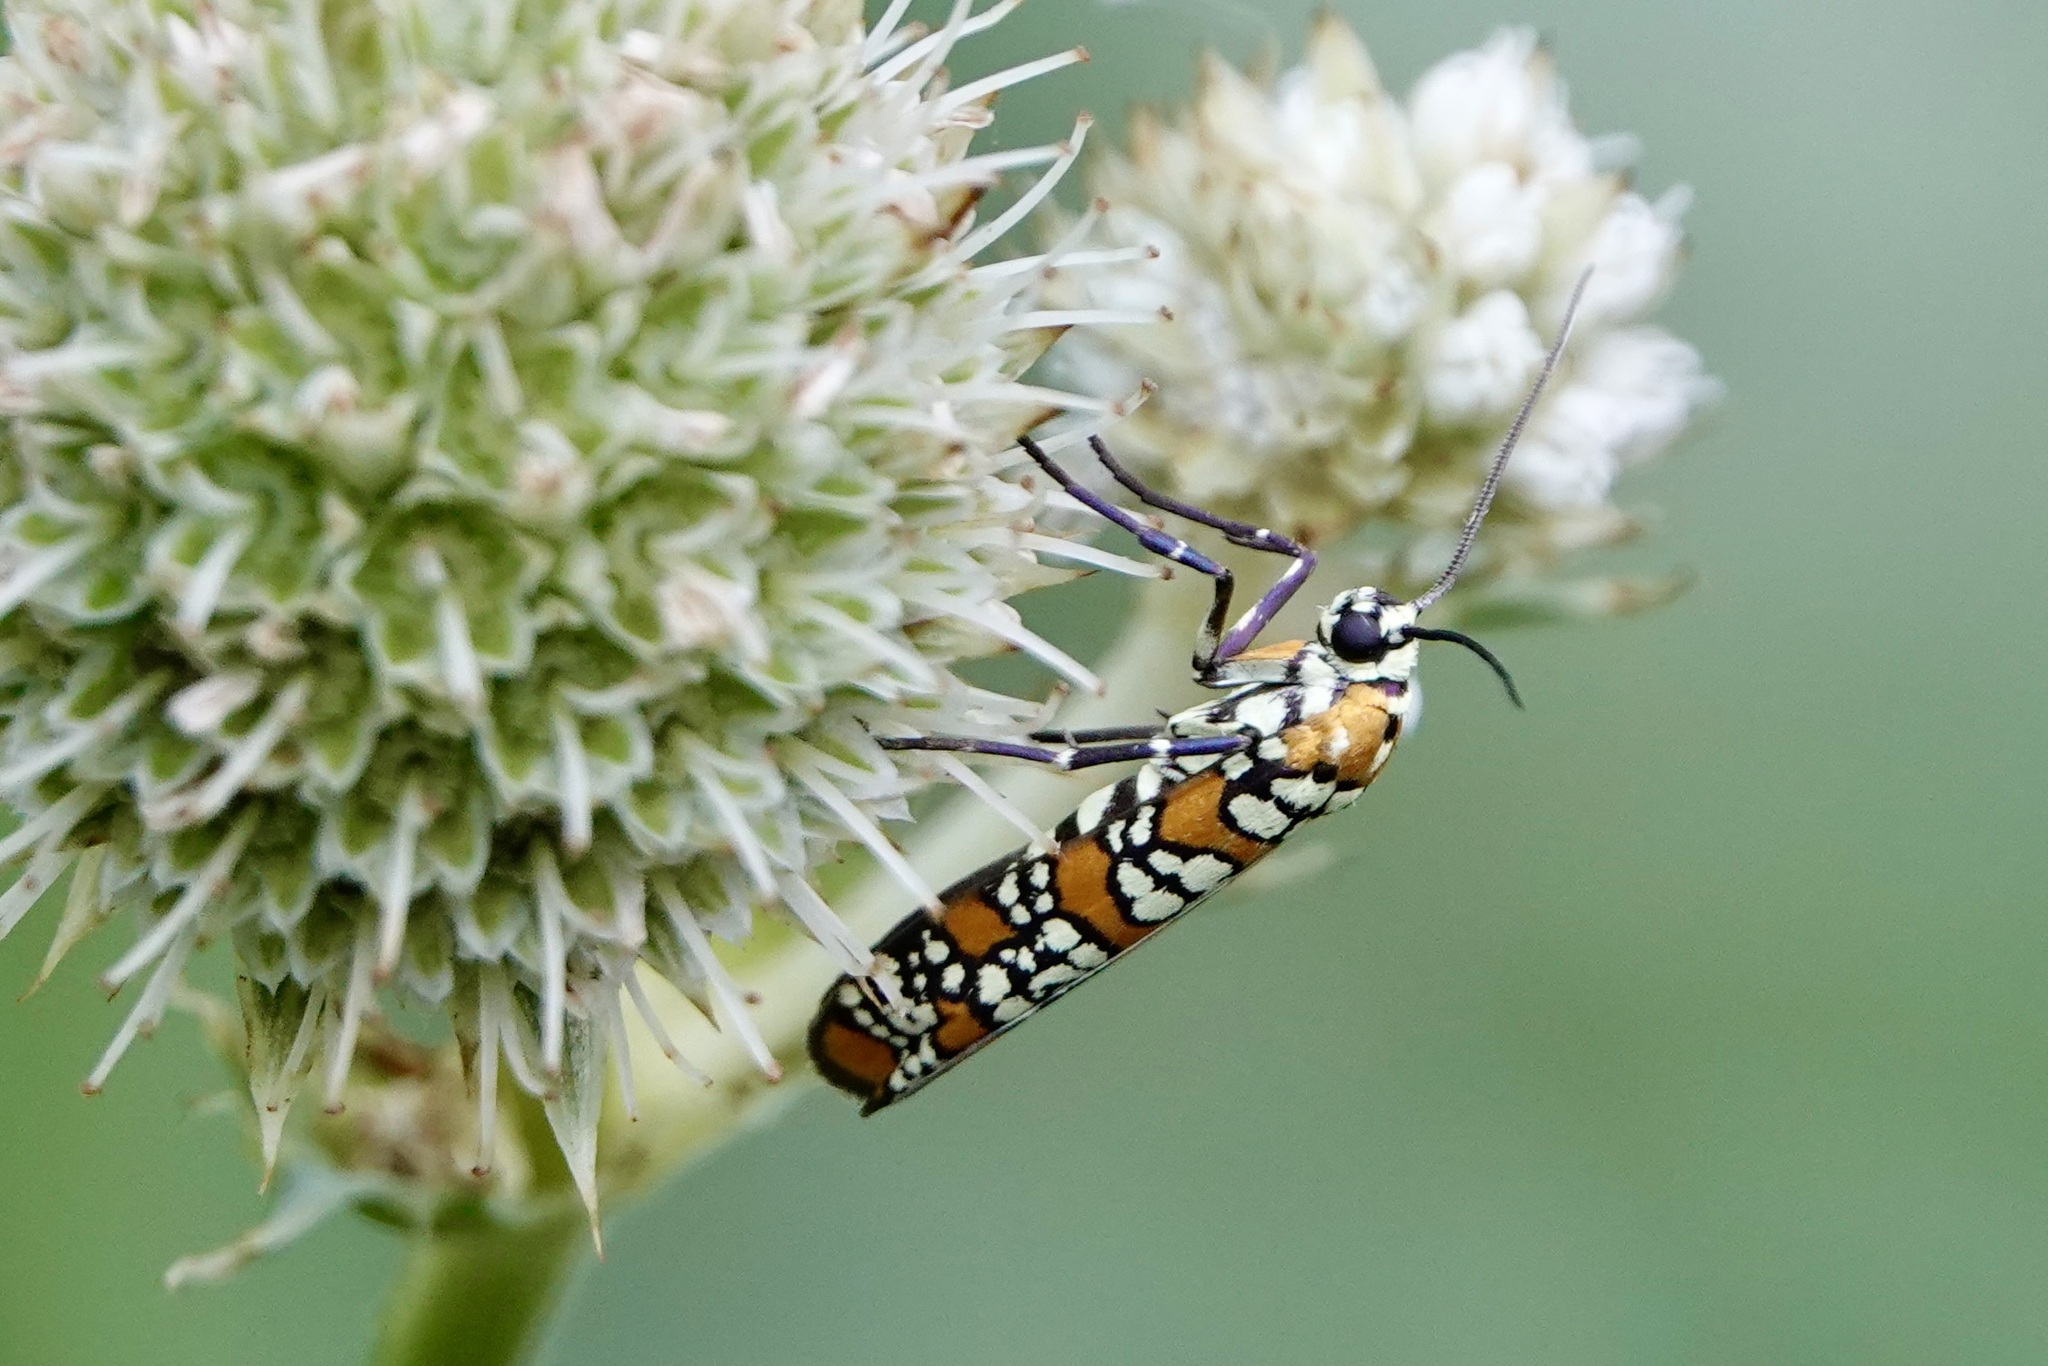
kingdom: Animalia
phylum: Arthropoda
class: Insecta
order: Lepidoptera
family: Attevidae
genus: Atteva
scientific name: Atteva punctella
